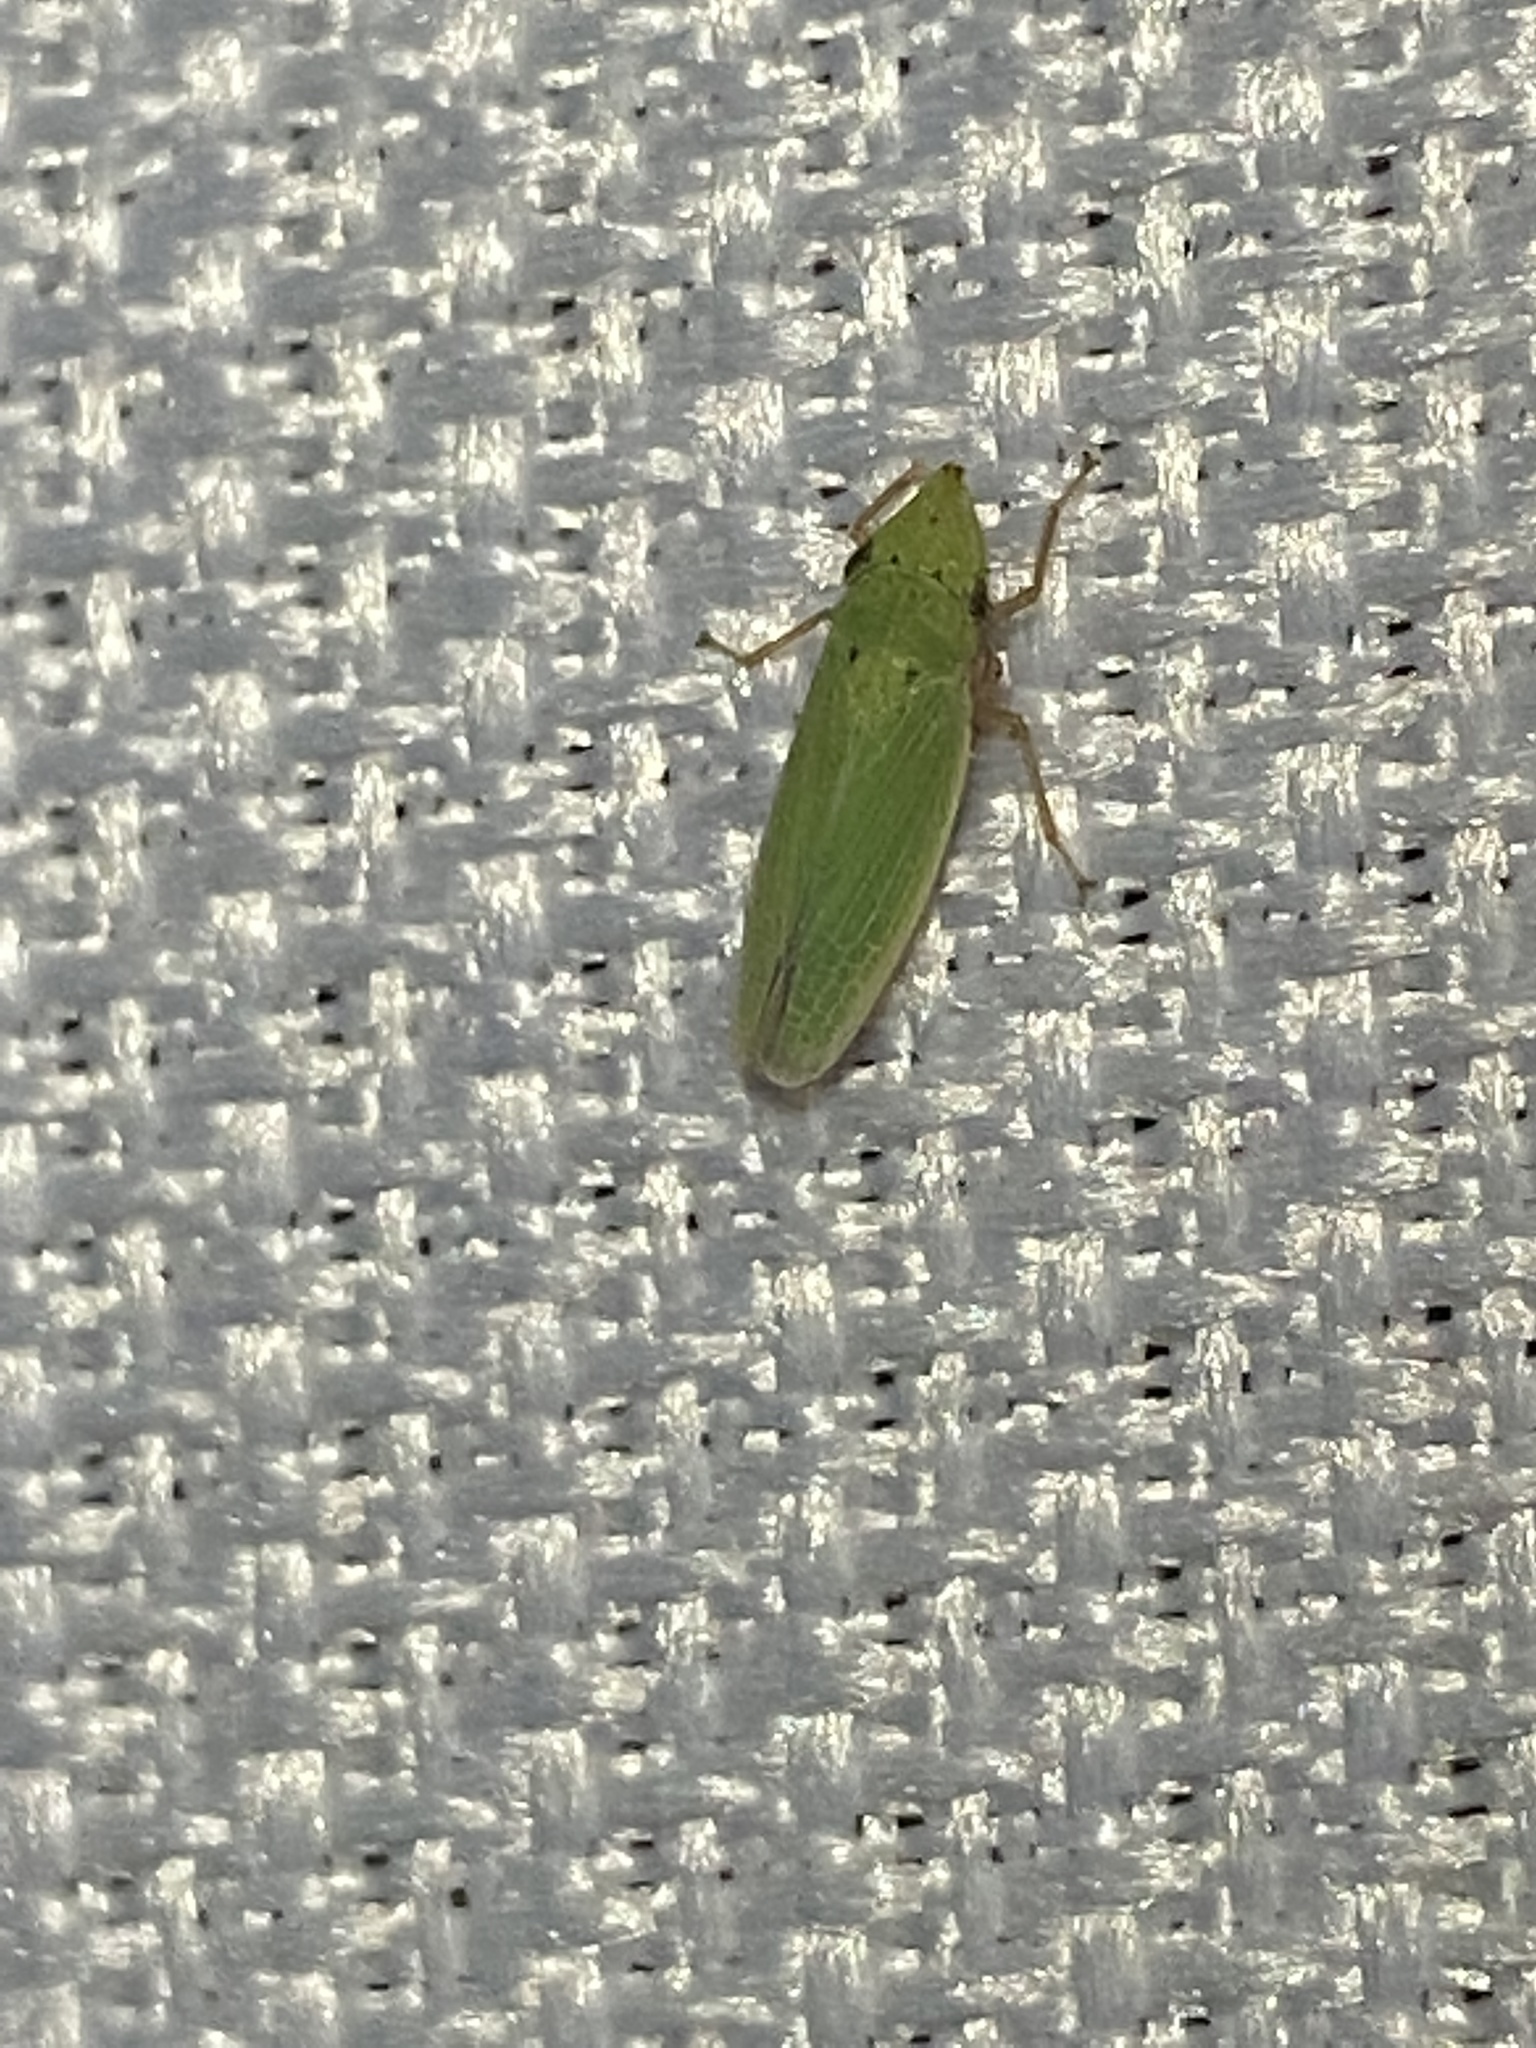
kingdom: Animalia
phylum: Arthropoda
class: Insecta
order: Hemiptera
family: Cicadellidae
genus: Draeculacephala
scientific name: Draeculacephala balli
